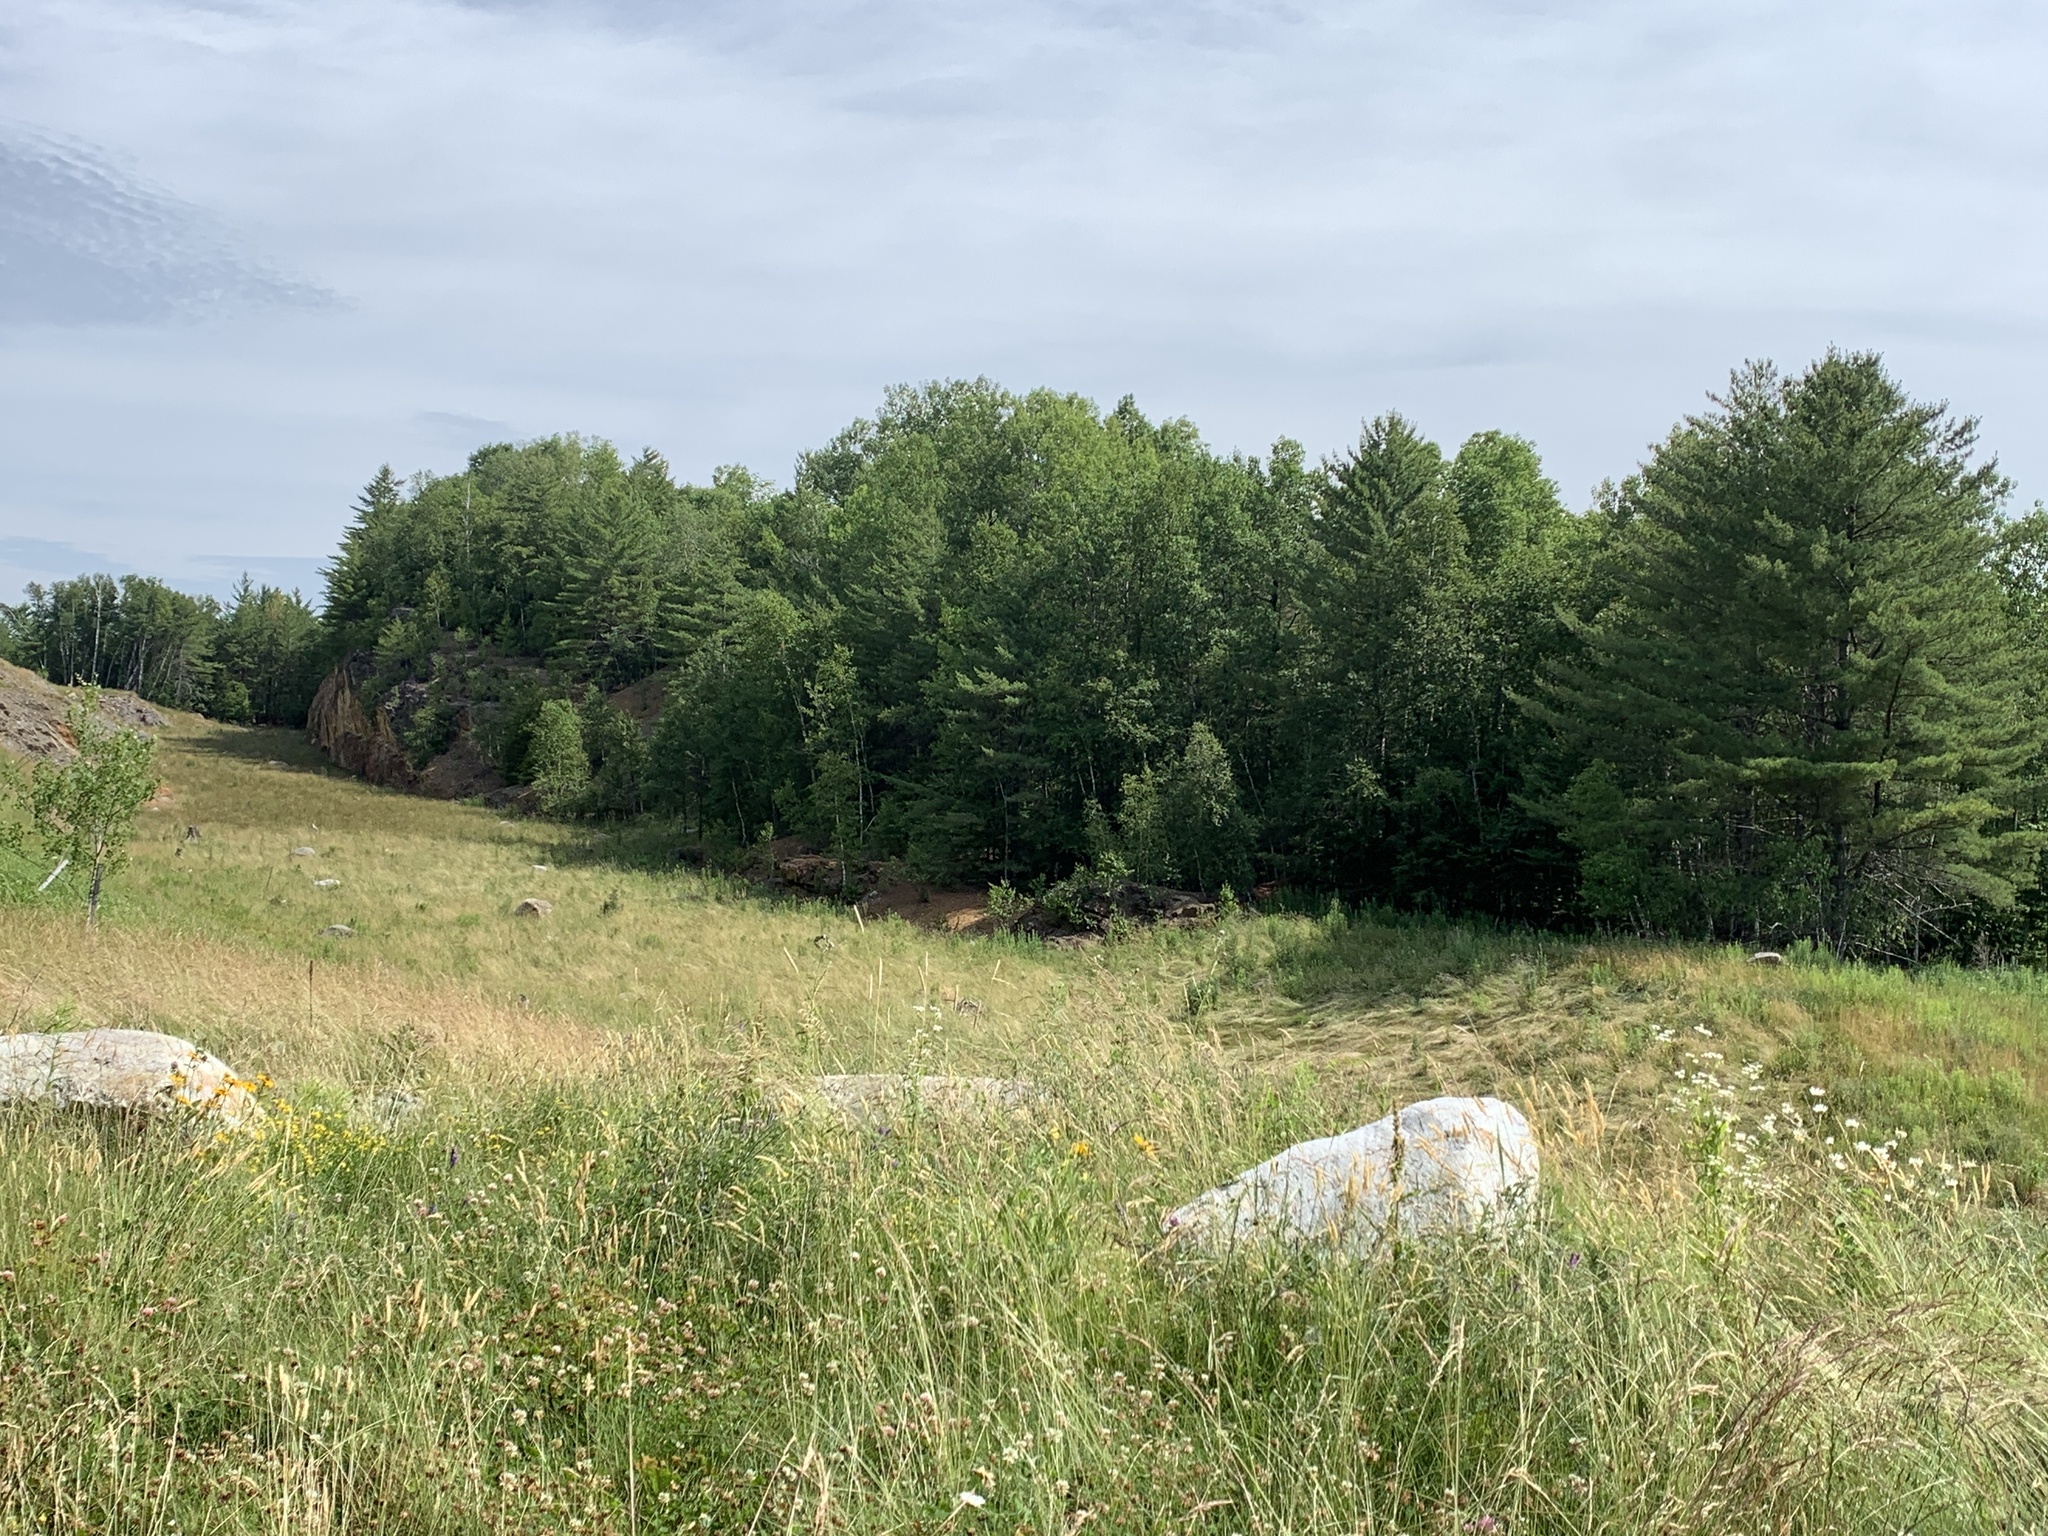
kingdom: Plantae
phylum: Tracheophyta
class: Pinopsida
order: Pinales
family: Pinaceae
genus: Pinus
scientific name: Pinus strobus
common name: Weymouth pine
